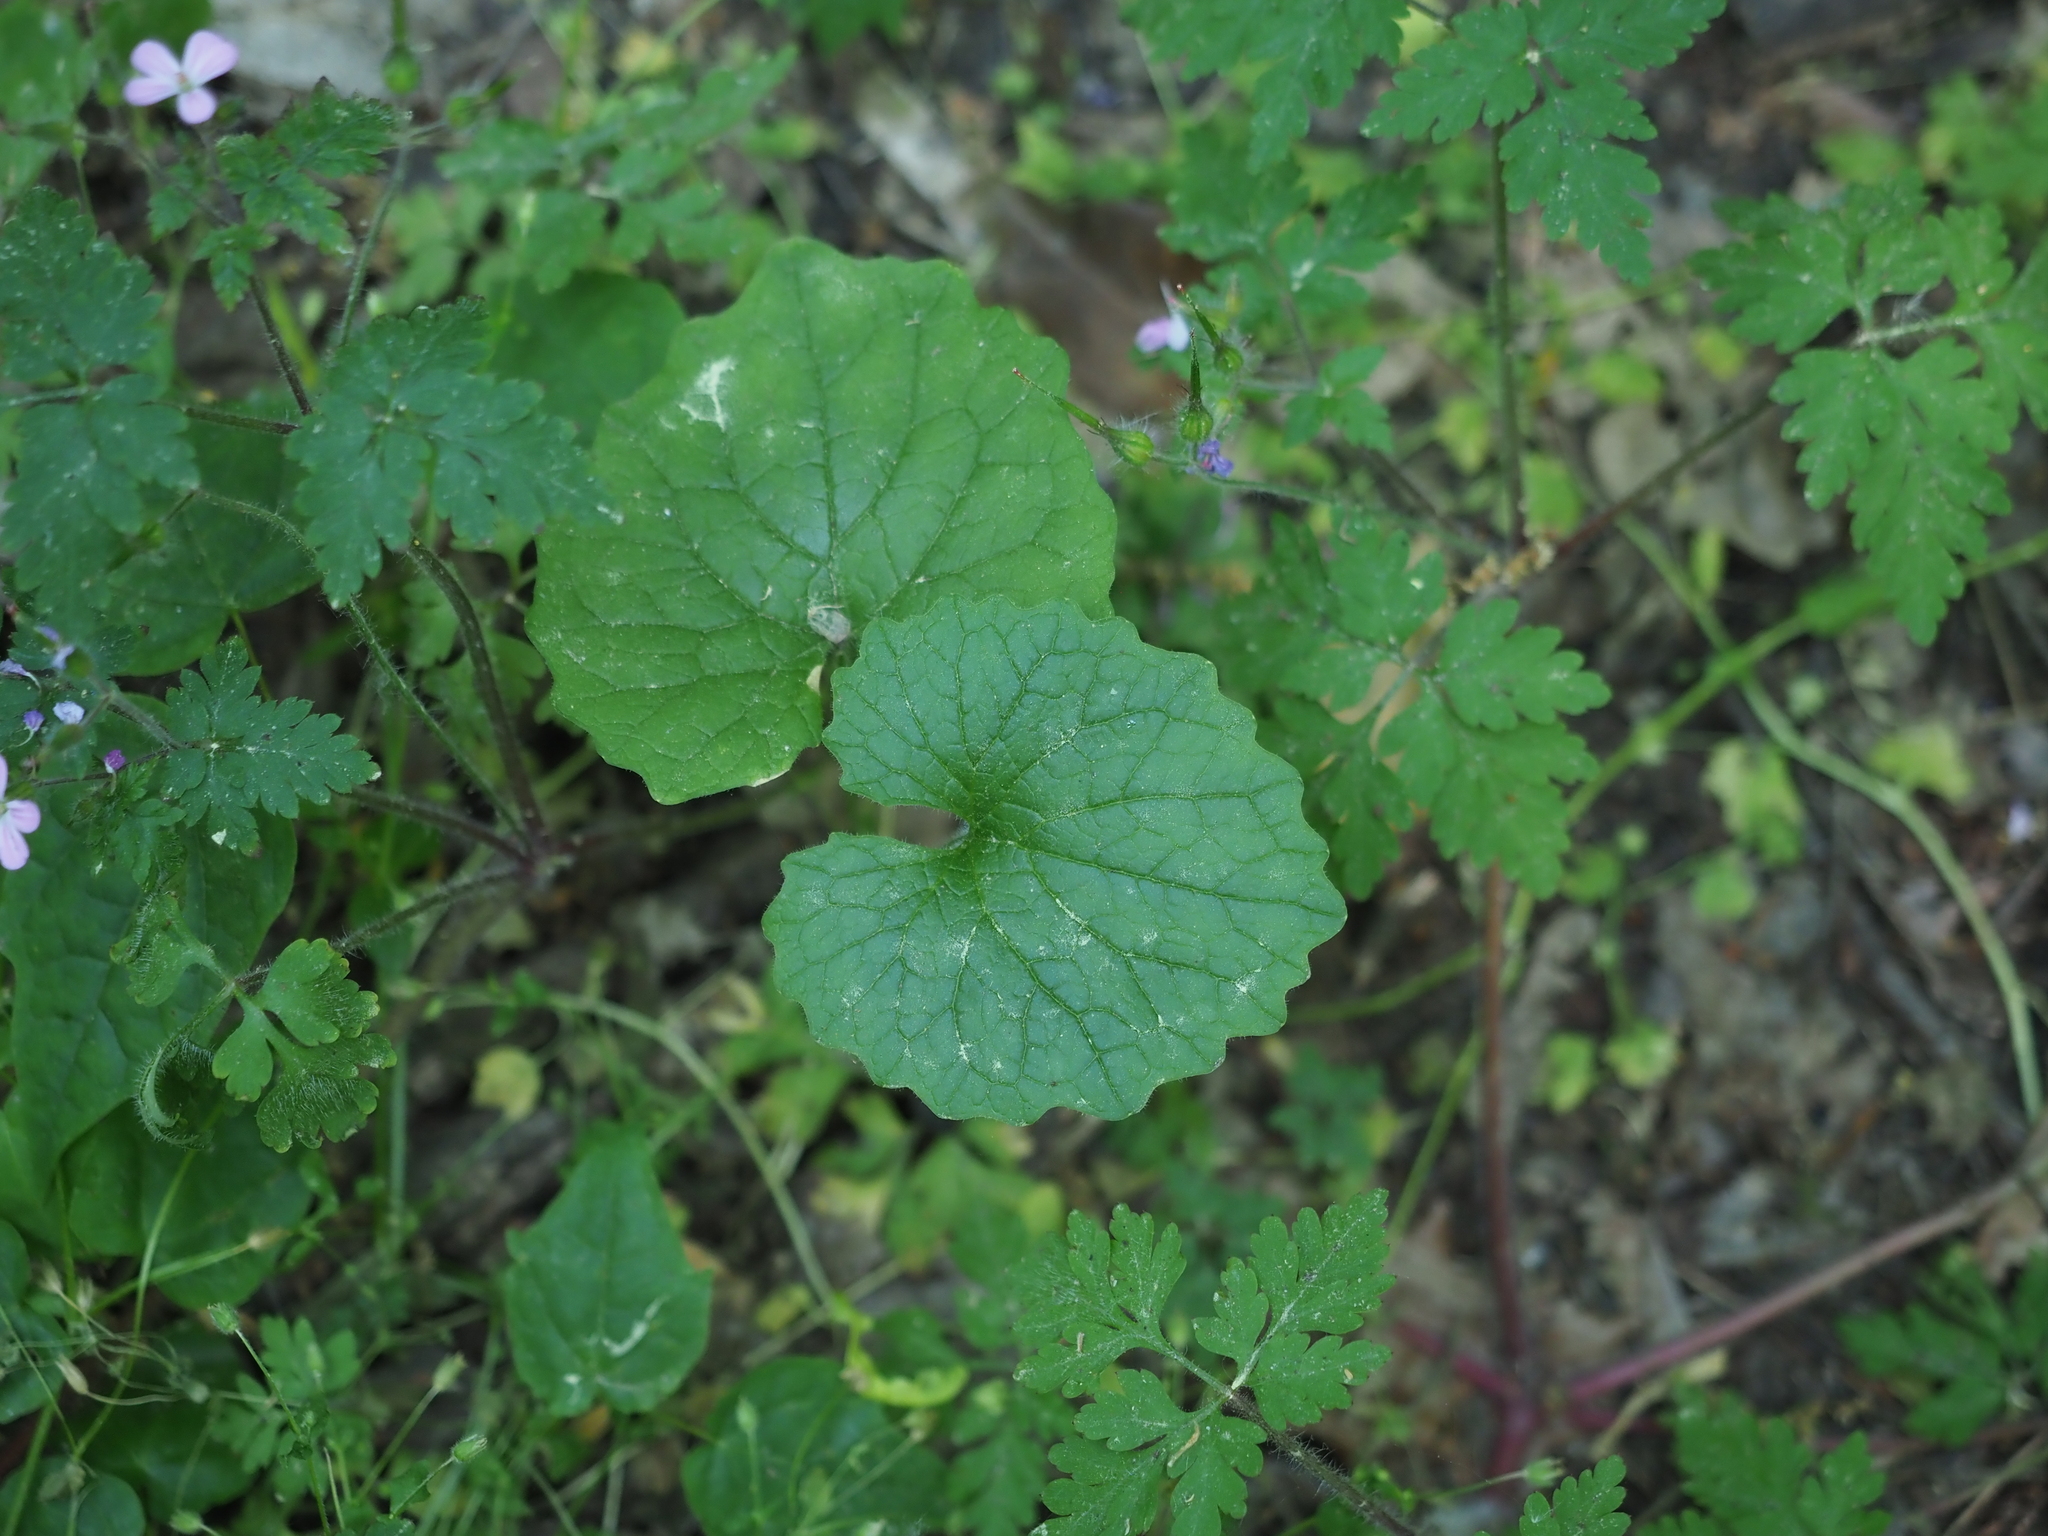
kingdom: Plantae
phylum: Tracheophyta
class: Magnoliopsida
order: Brassicales
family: Brassicaceae
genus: Alliaria
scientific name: Alliaria petiolata
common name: Garlic mustard
